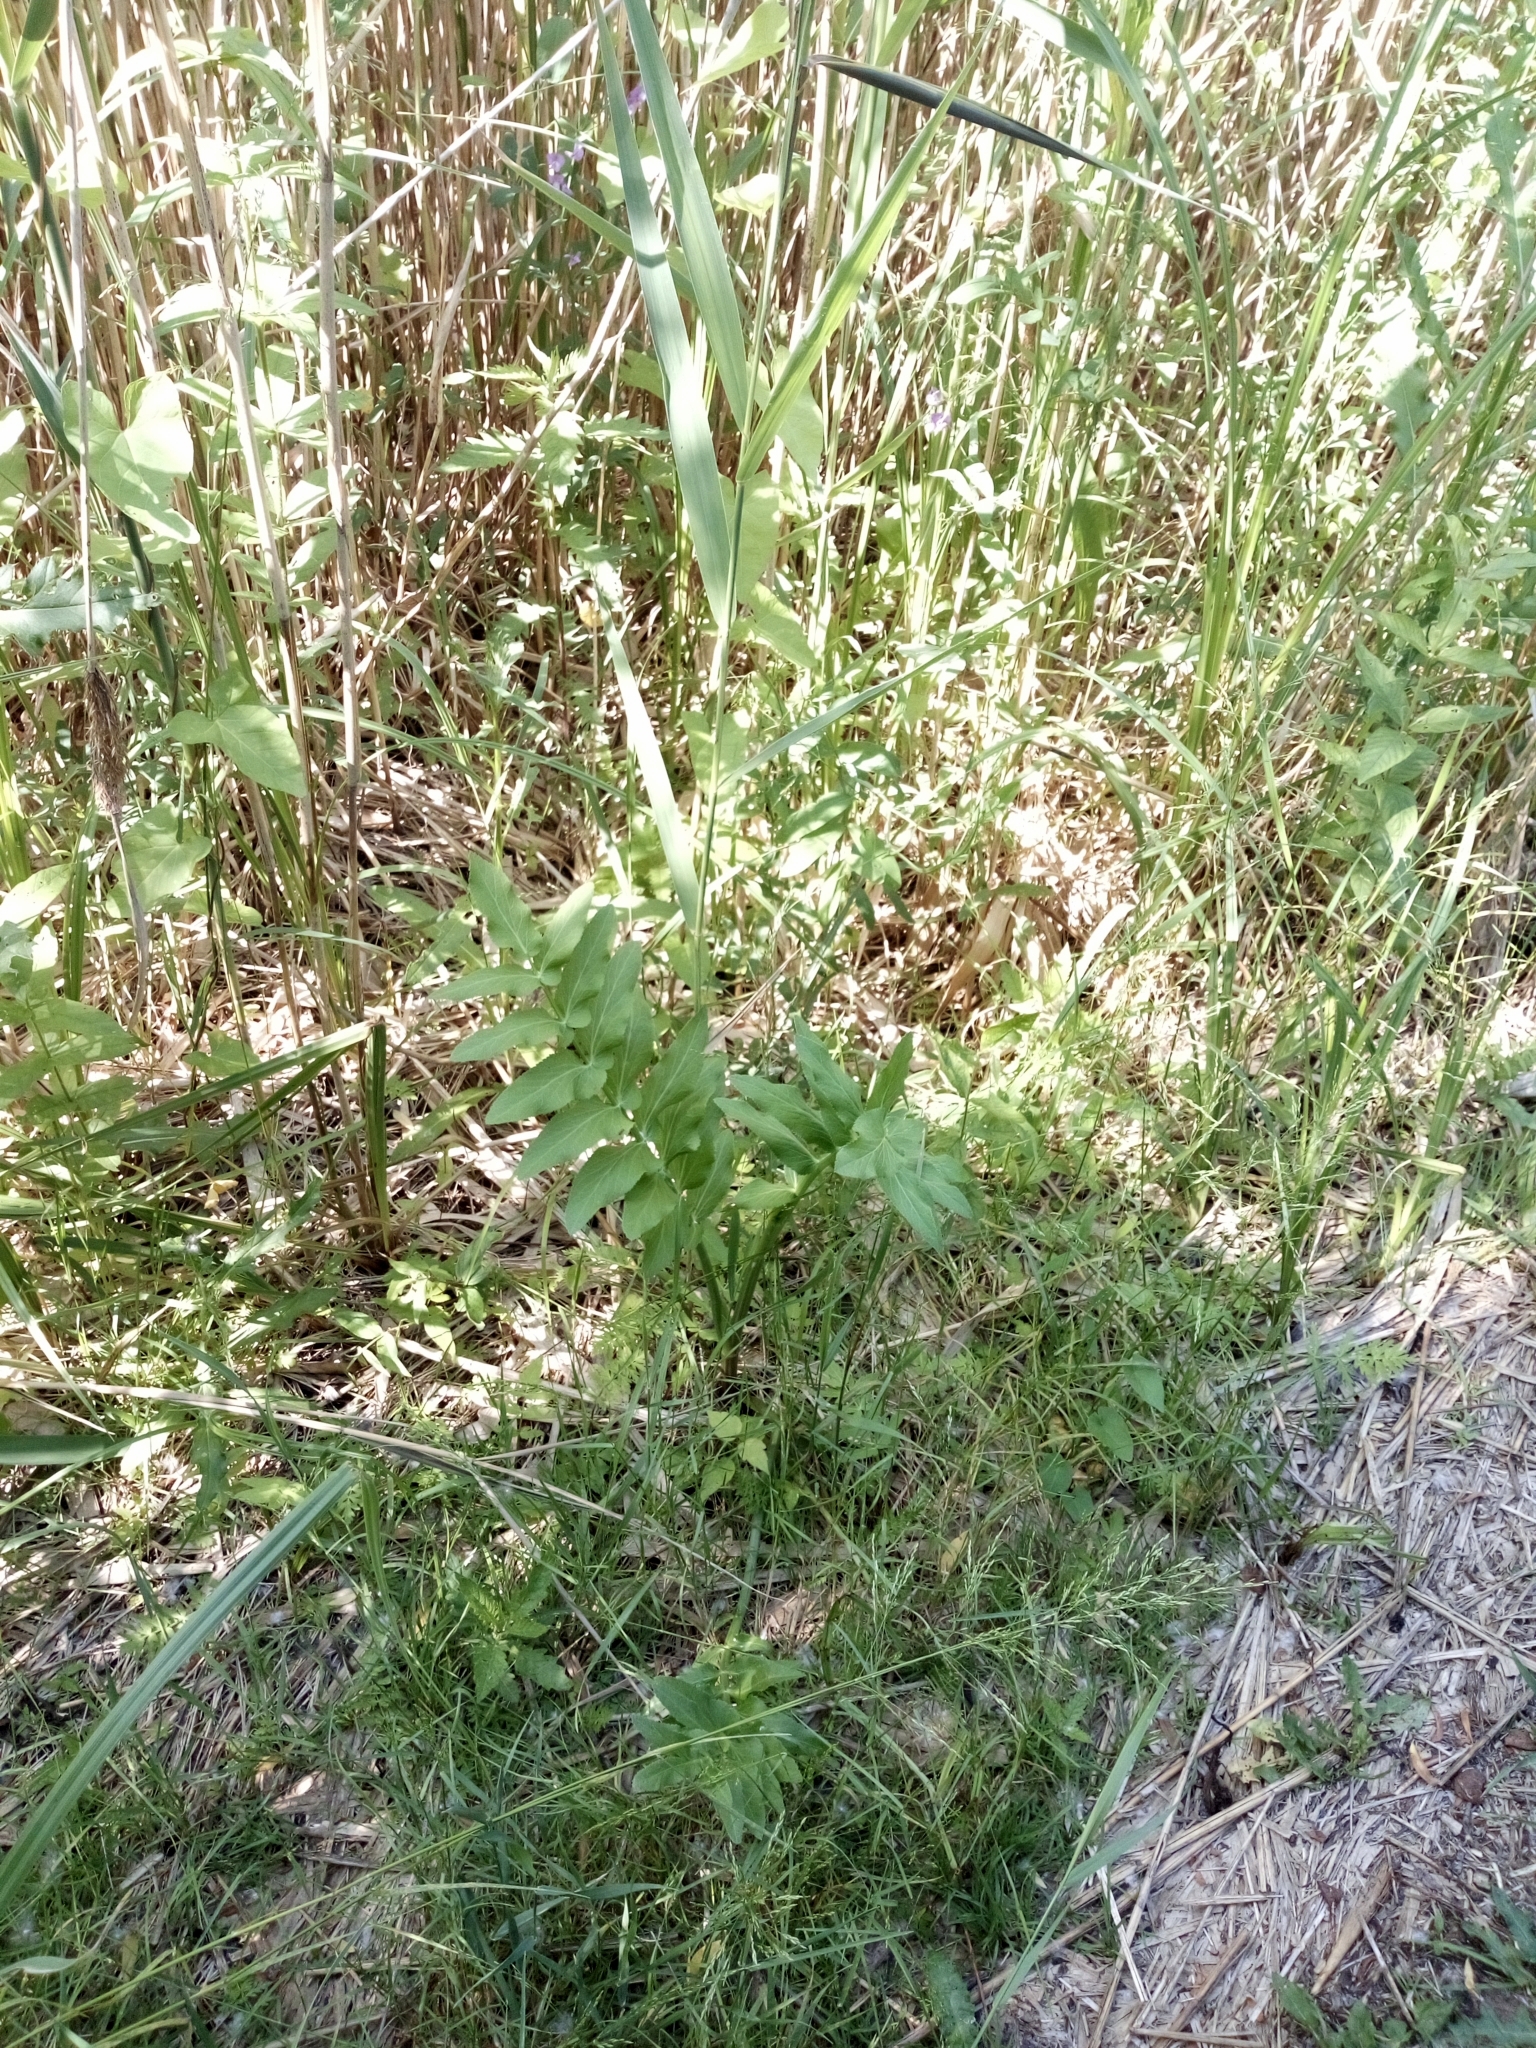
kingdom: Plantae
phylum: Tracheophyta
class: Magnoliopsida
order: Apiales
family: Apiaceae
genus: Sium
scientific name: Sium latifolium
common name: Greater water-parsnip
